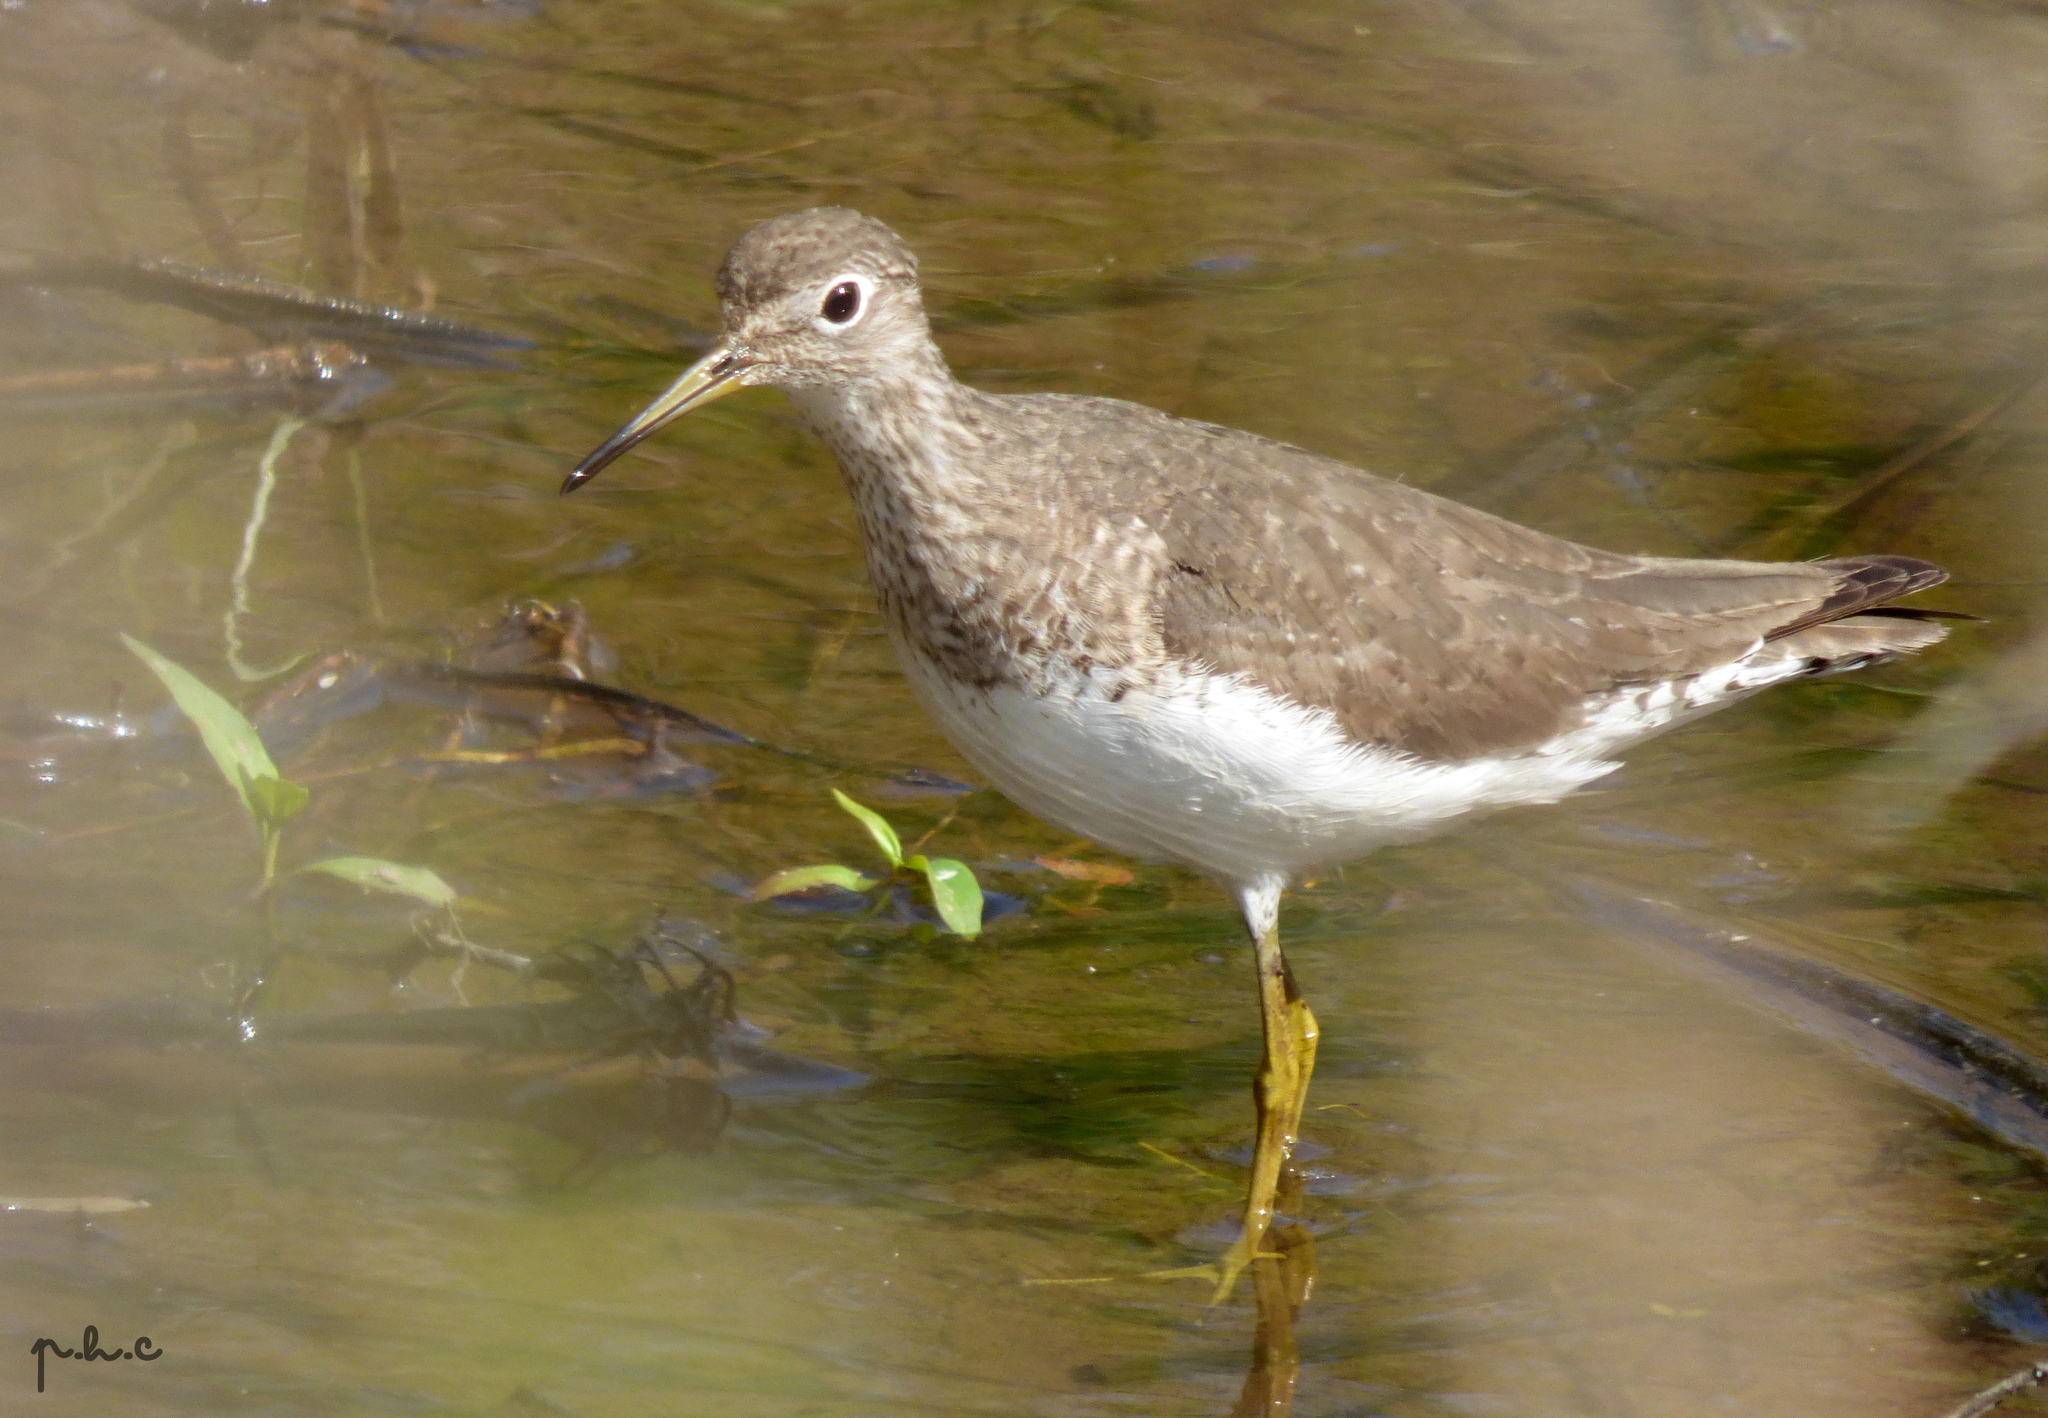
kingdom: Animalia
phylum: Chordata
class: Aves
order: Charadriiformes
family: Scolopacidae
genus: Tringa
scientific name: Tringa solitaria
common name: Solitary sandpiper
